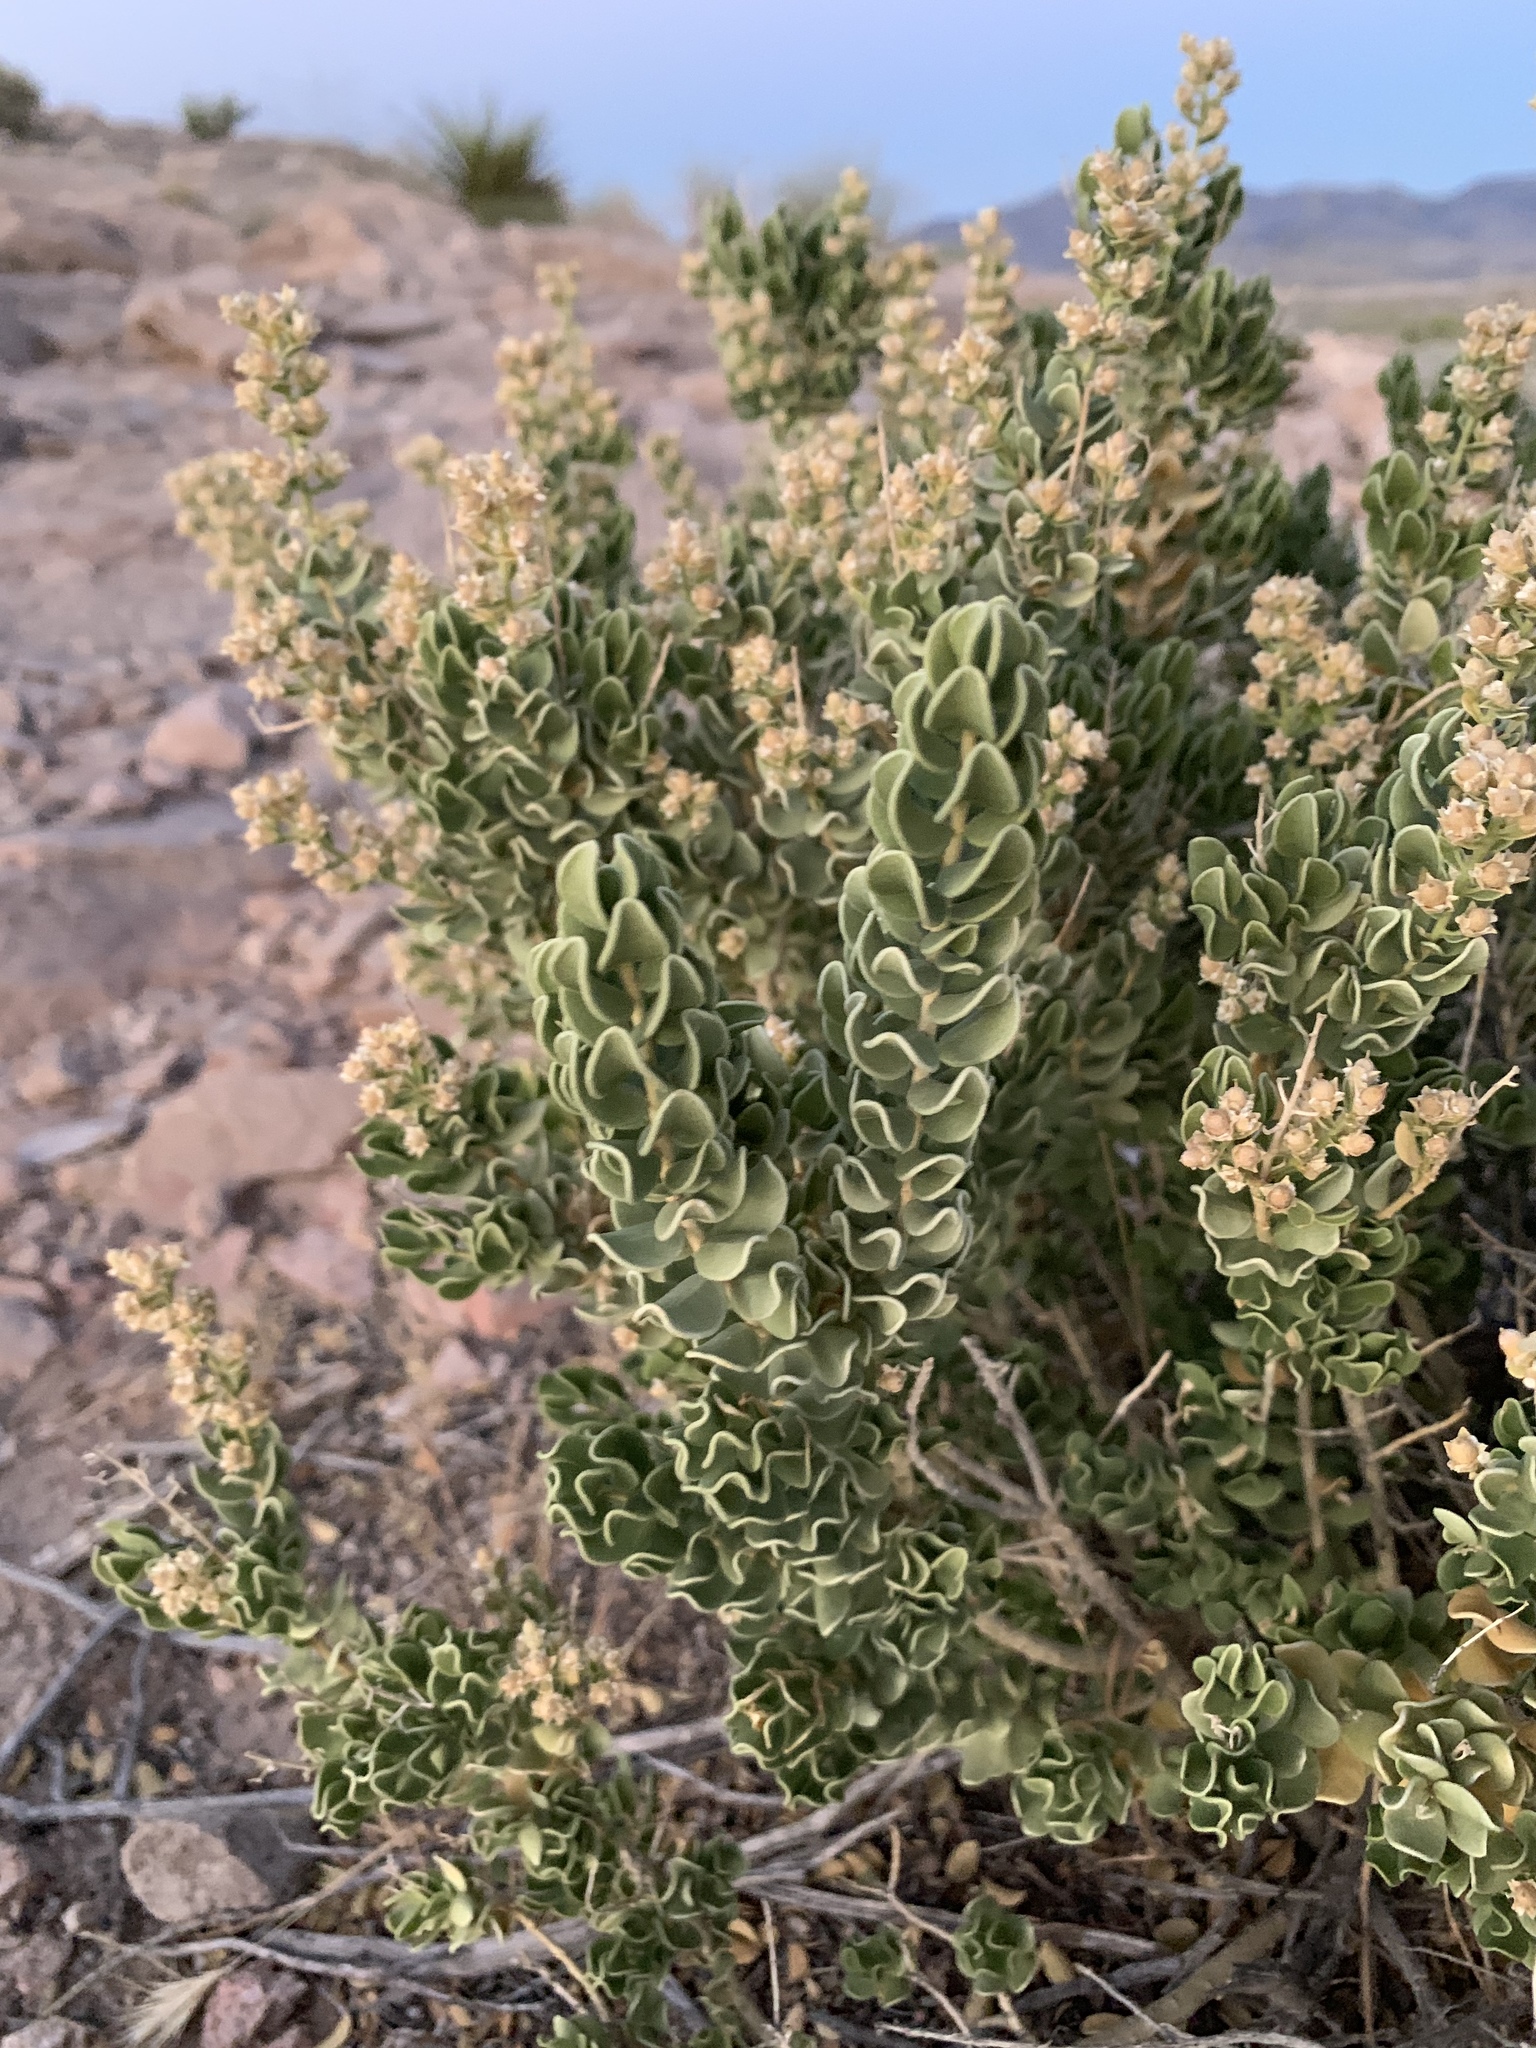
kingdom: Plantae
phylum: Tracheophyta
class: Magnoliopsida
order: Celastrales
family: Celastraceae
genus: Mortonia
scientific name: Mortonia utahensis
